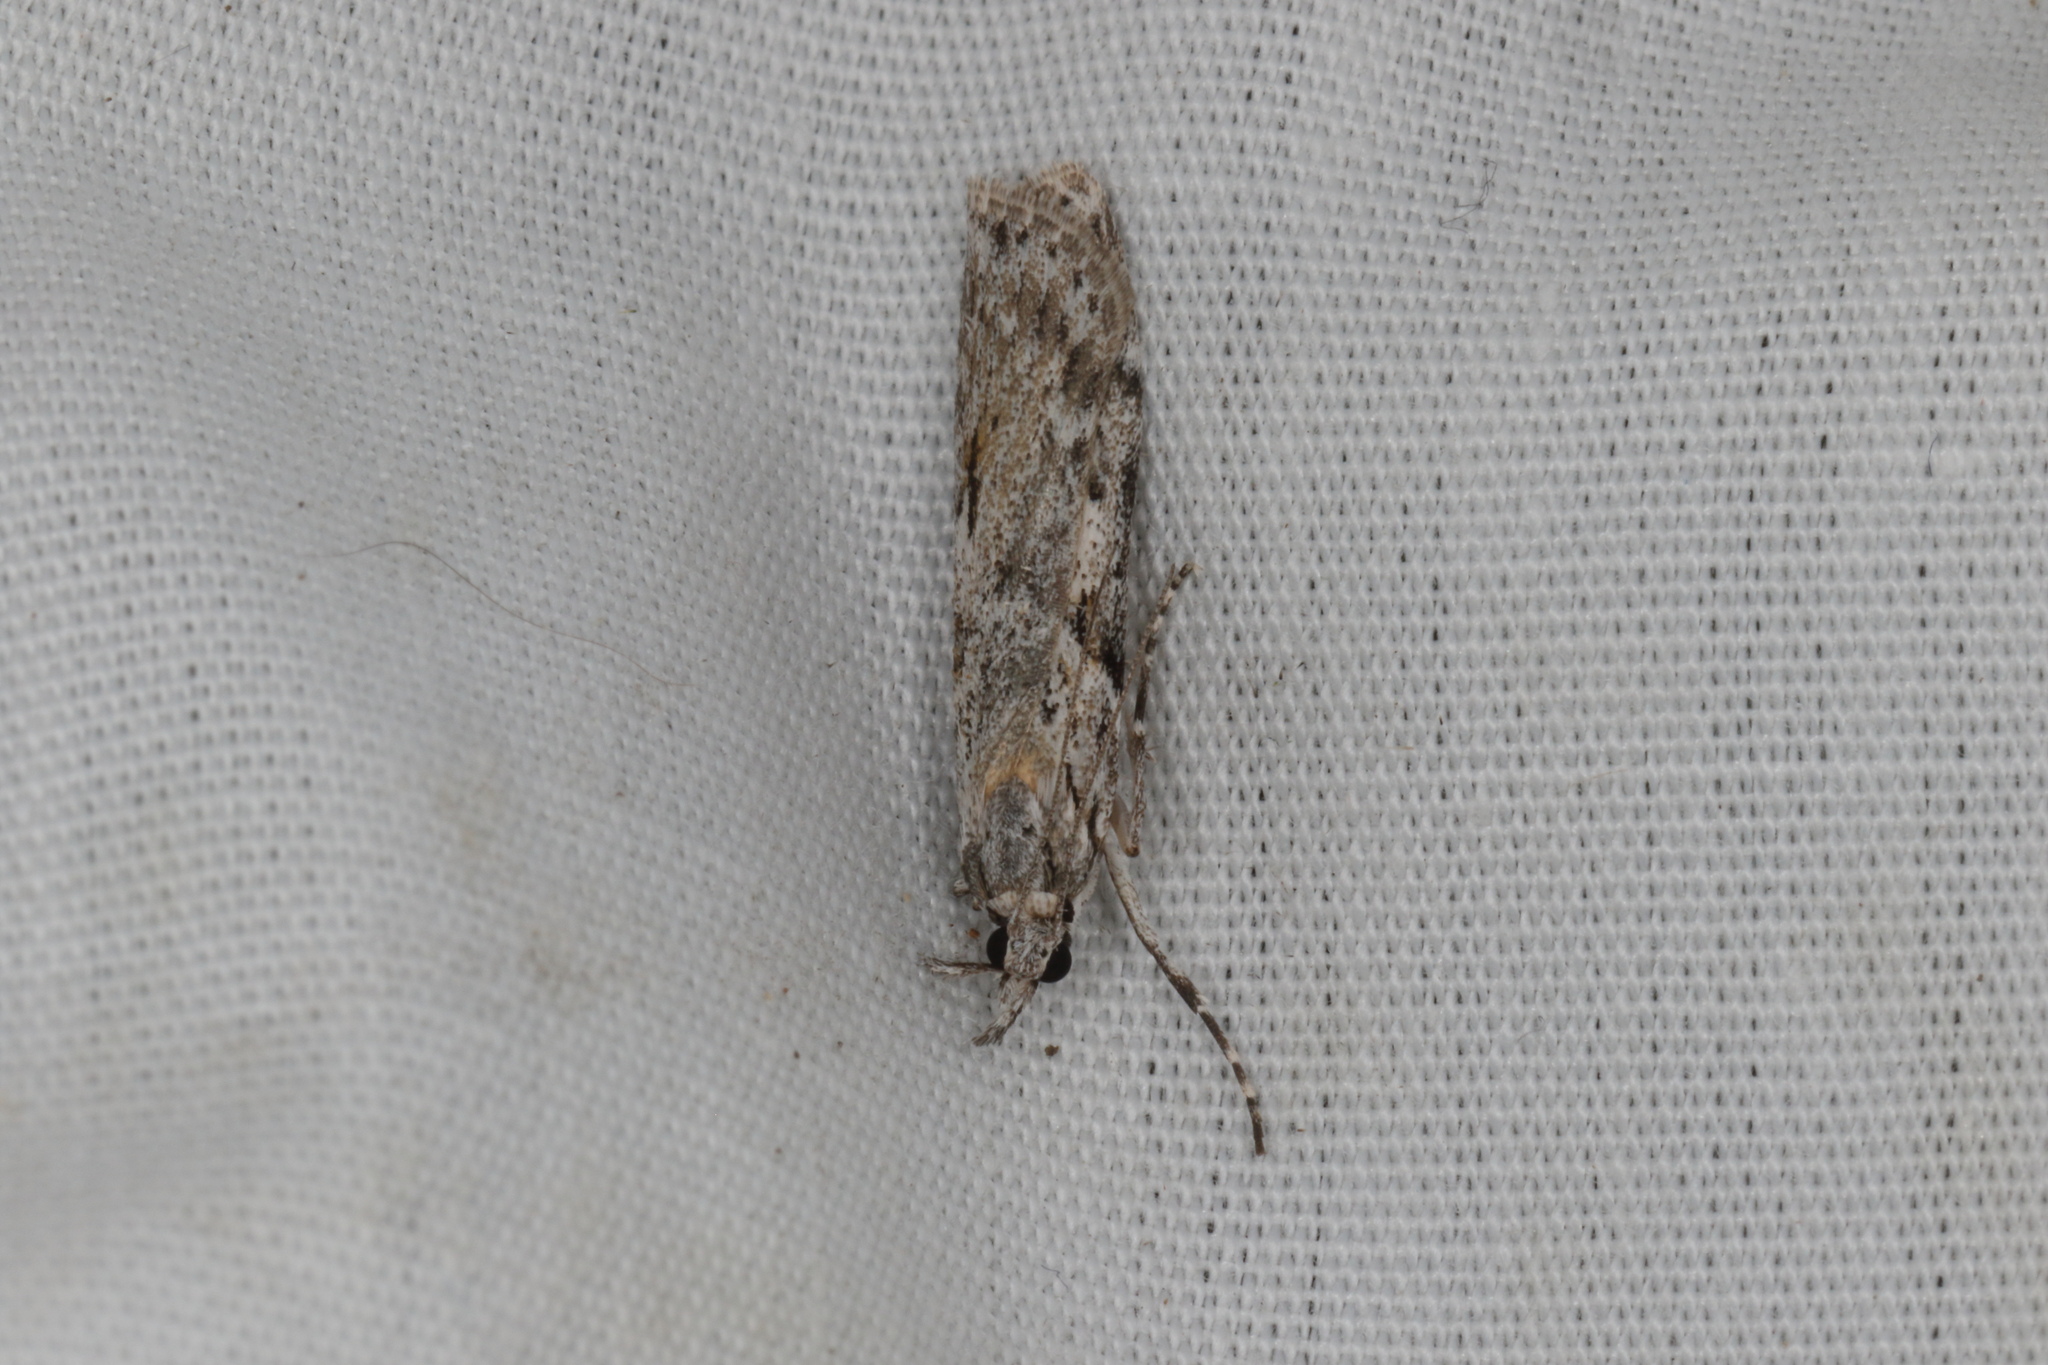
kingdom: Animalia
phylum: Arthropoda
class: Insecta
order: Lepidoptera
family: Crambidae
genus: Scoparia
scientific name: Scoparia halopis
